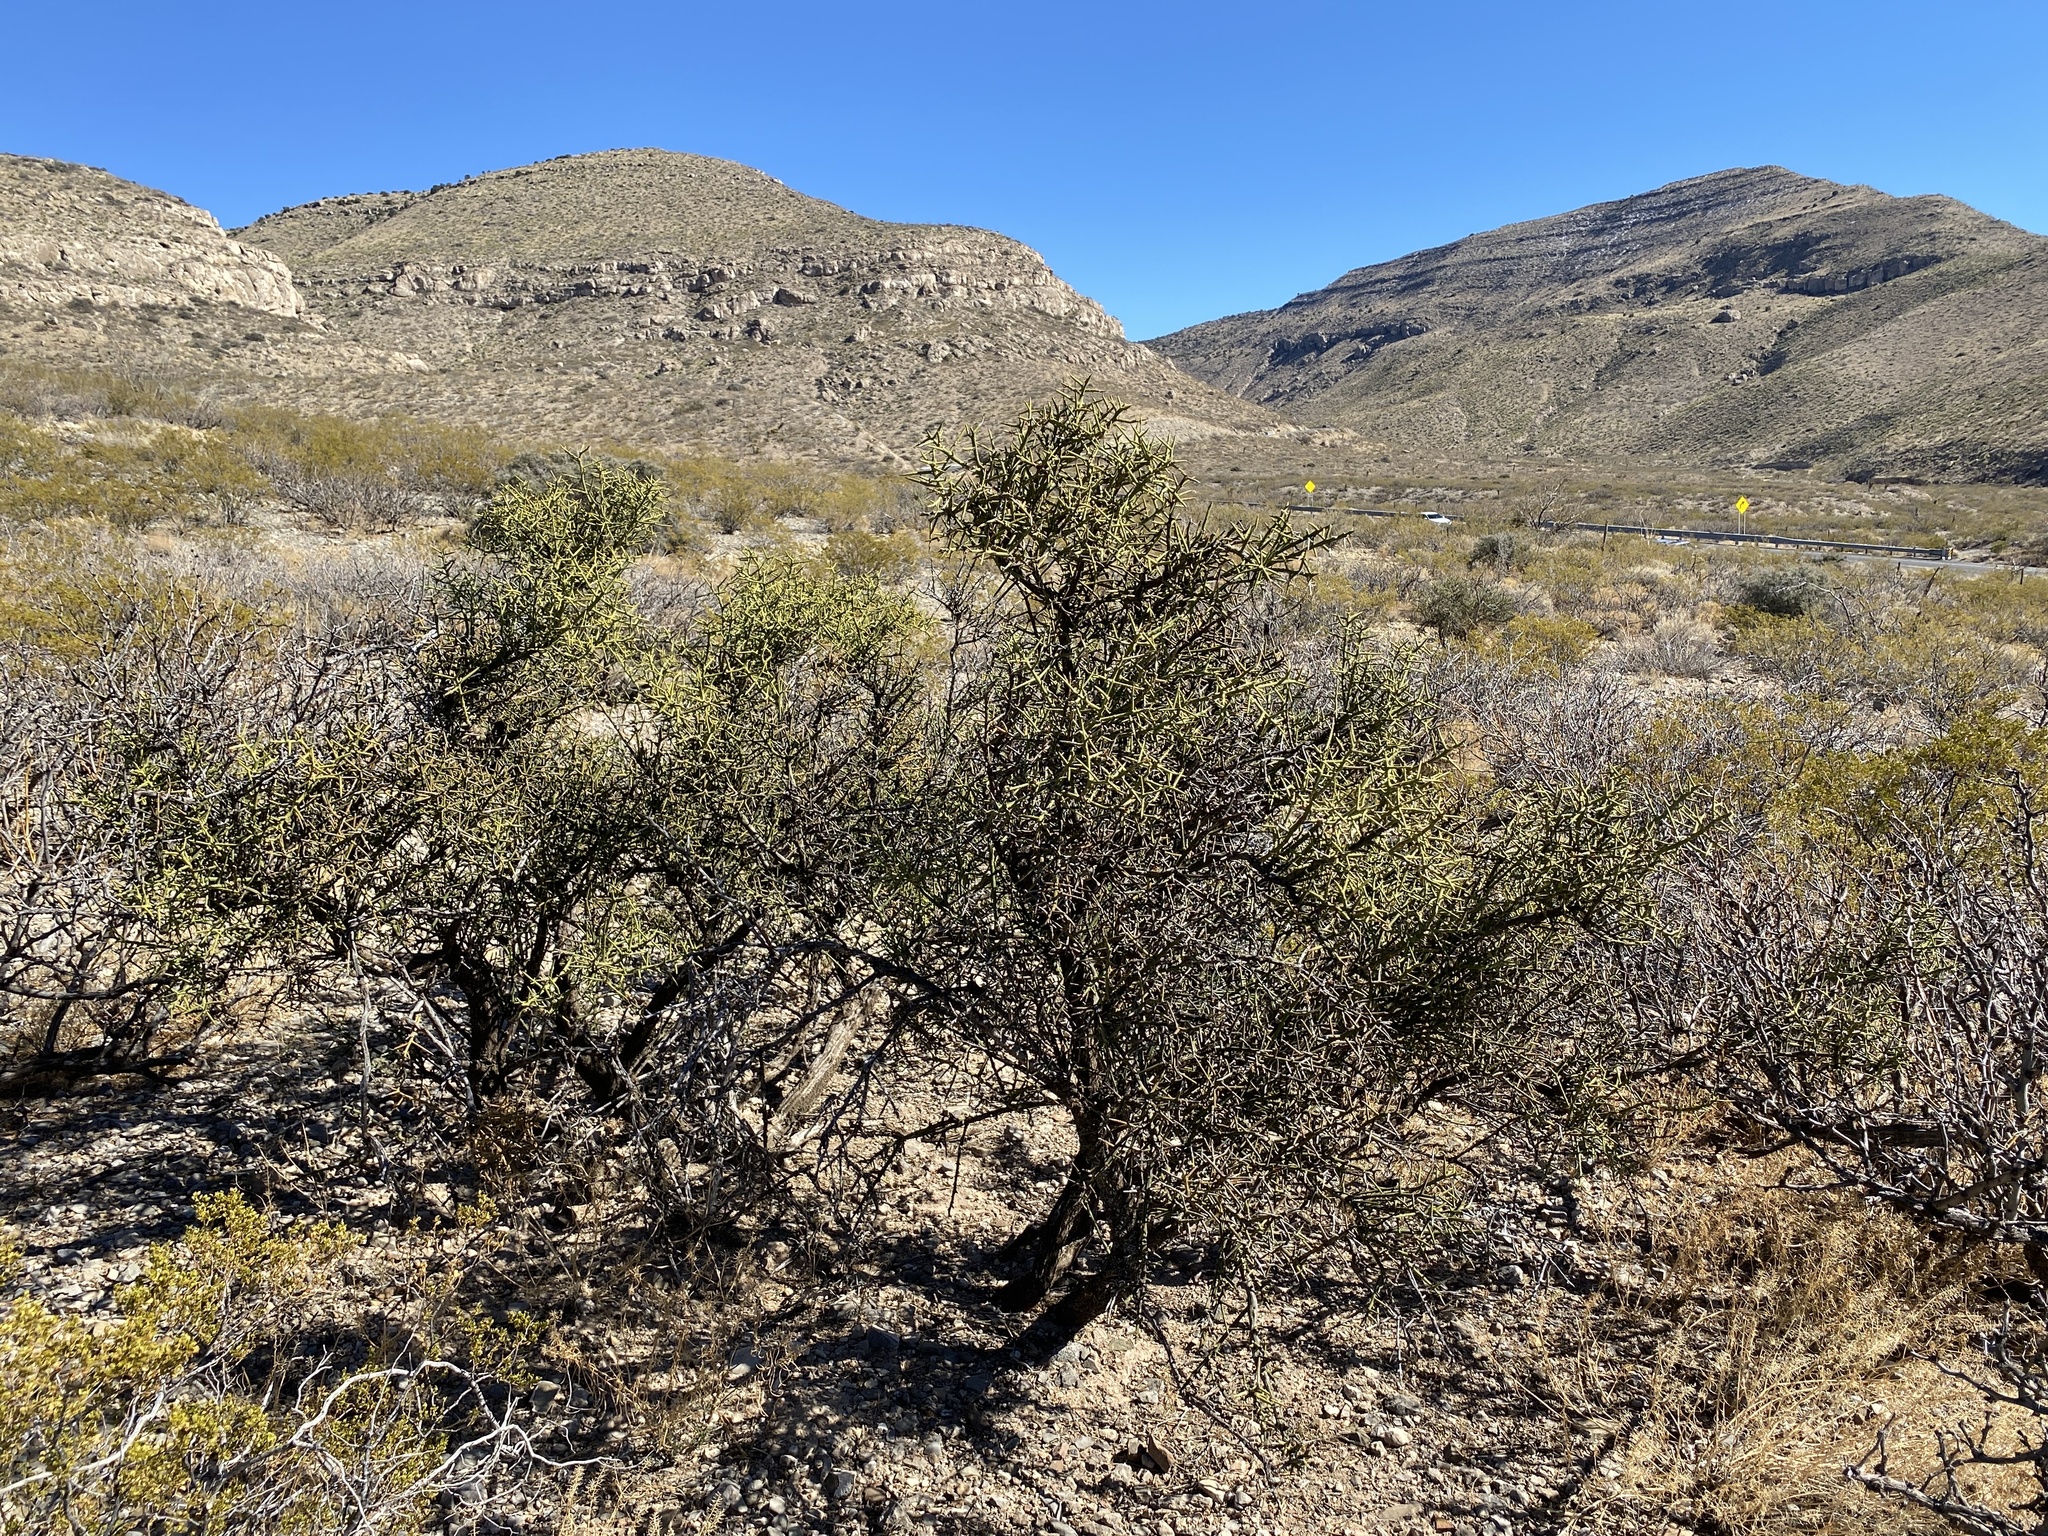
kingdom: Plantae
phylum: Tracheophyta
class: Magnoliopsida
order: Brassicales
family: Koeberliniaceae
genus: Koeberlinia
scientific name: Koeberlinia spinosa
